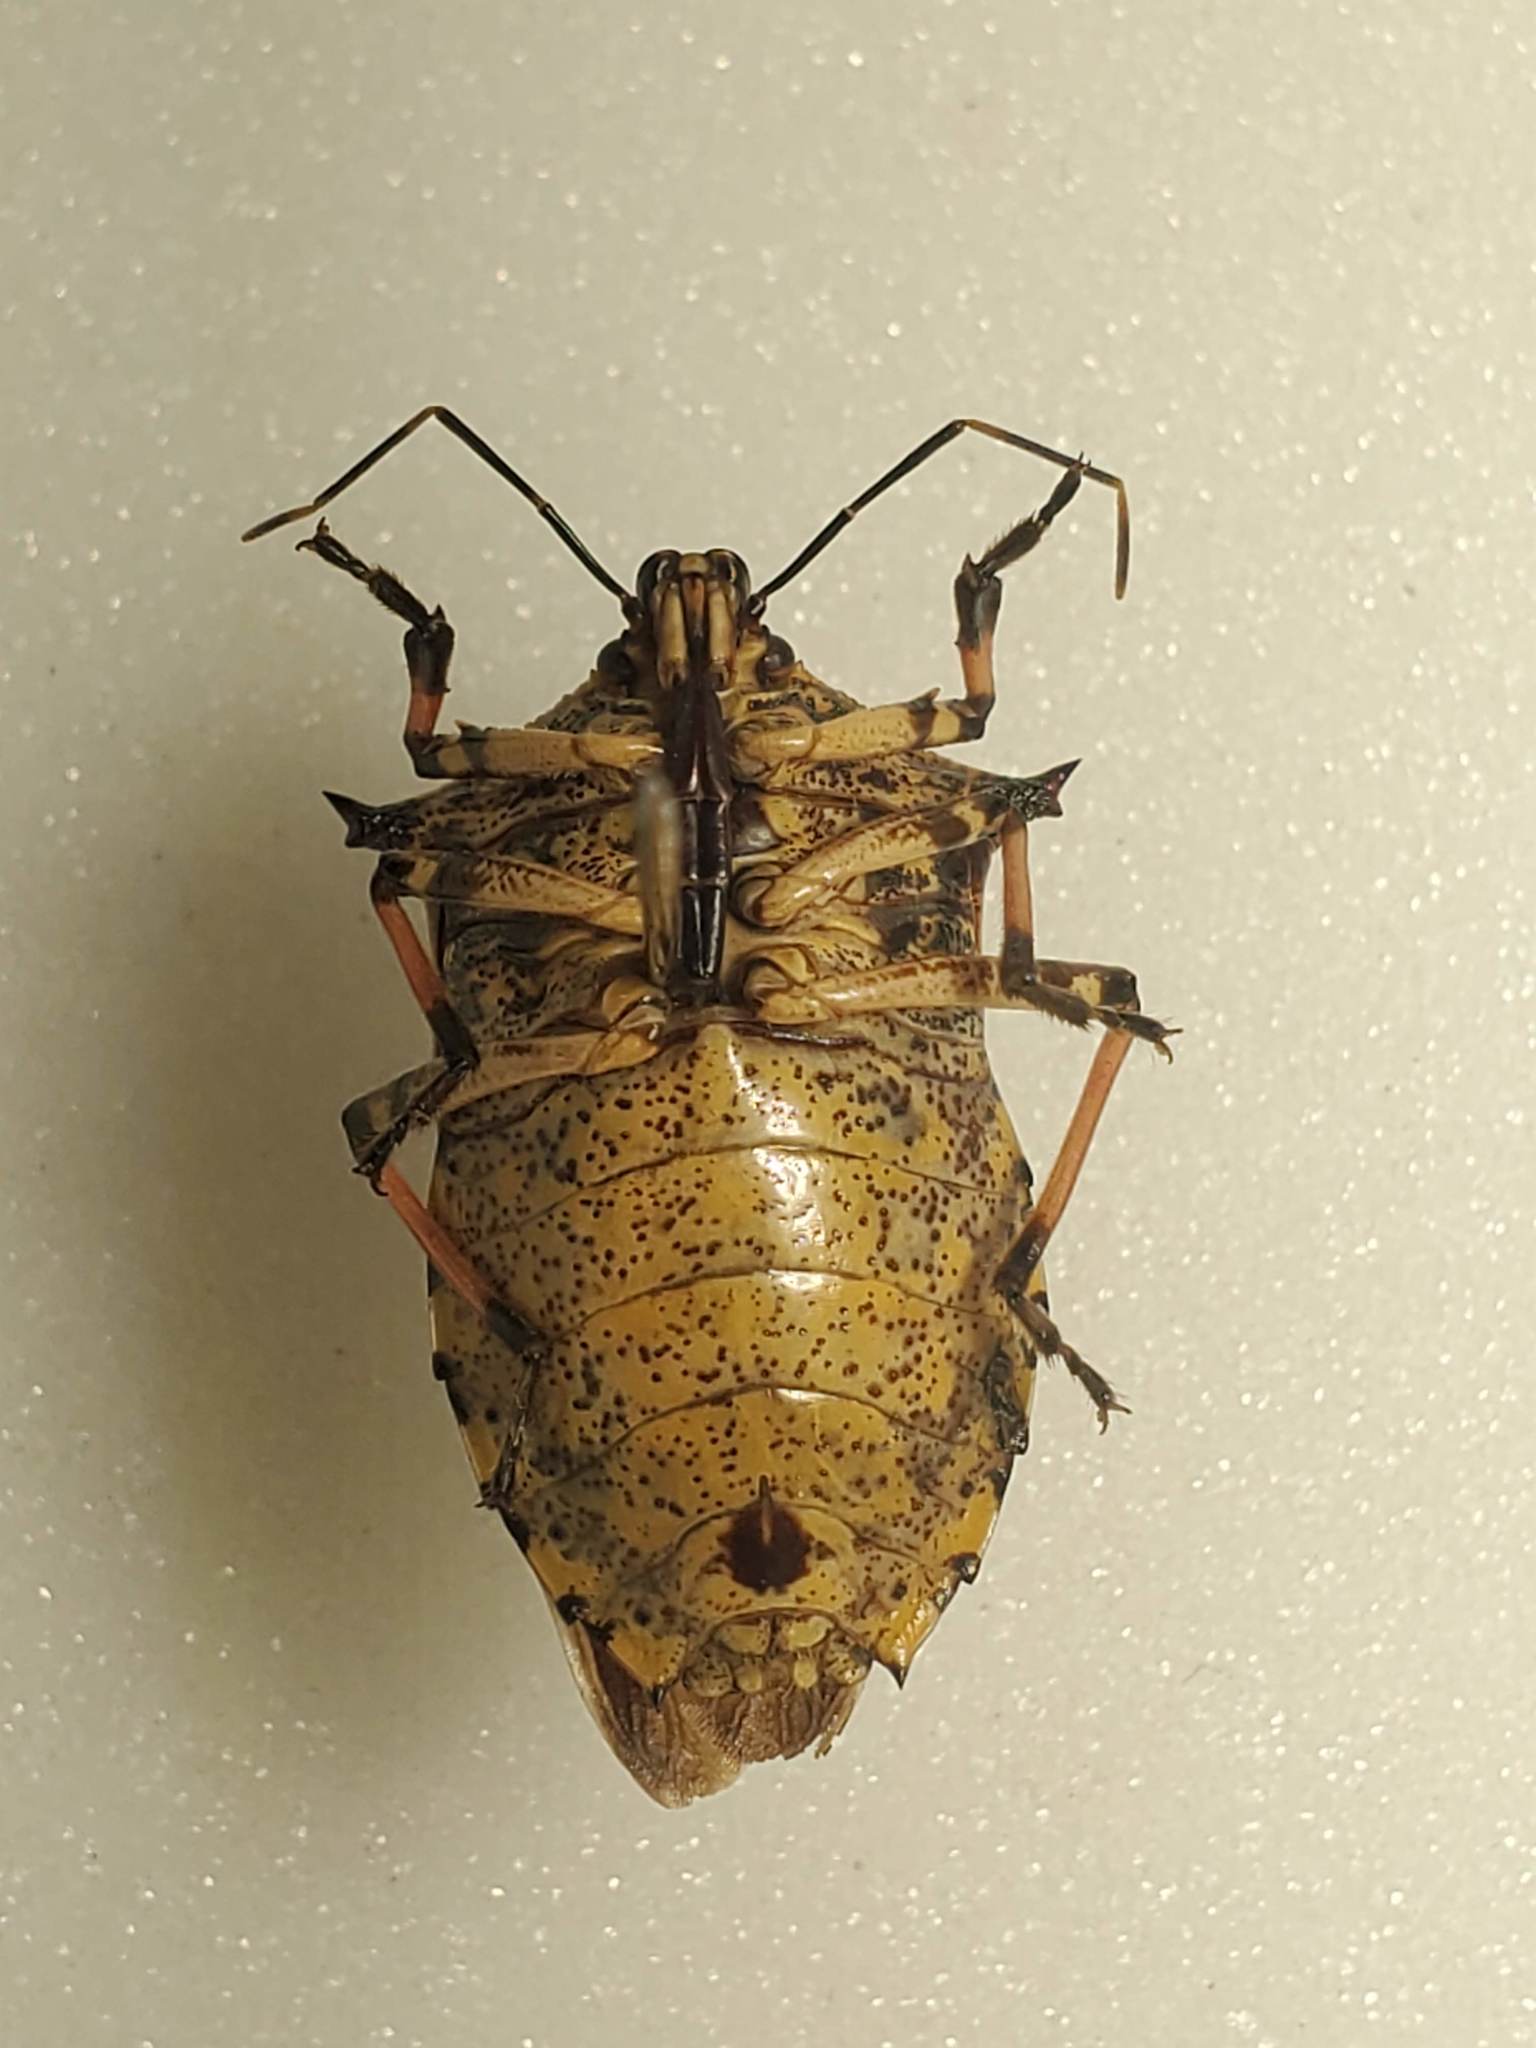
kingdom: Animalia
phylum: Arthropoda
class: Insecta
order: Hemiptera
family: Pentatomidae
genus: Alcaeorrhynchus
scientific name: Alcaeorrhynchus grandis
